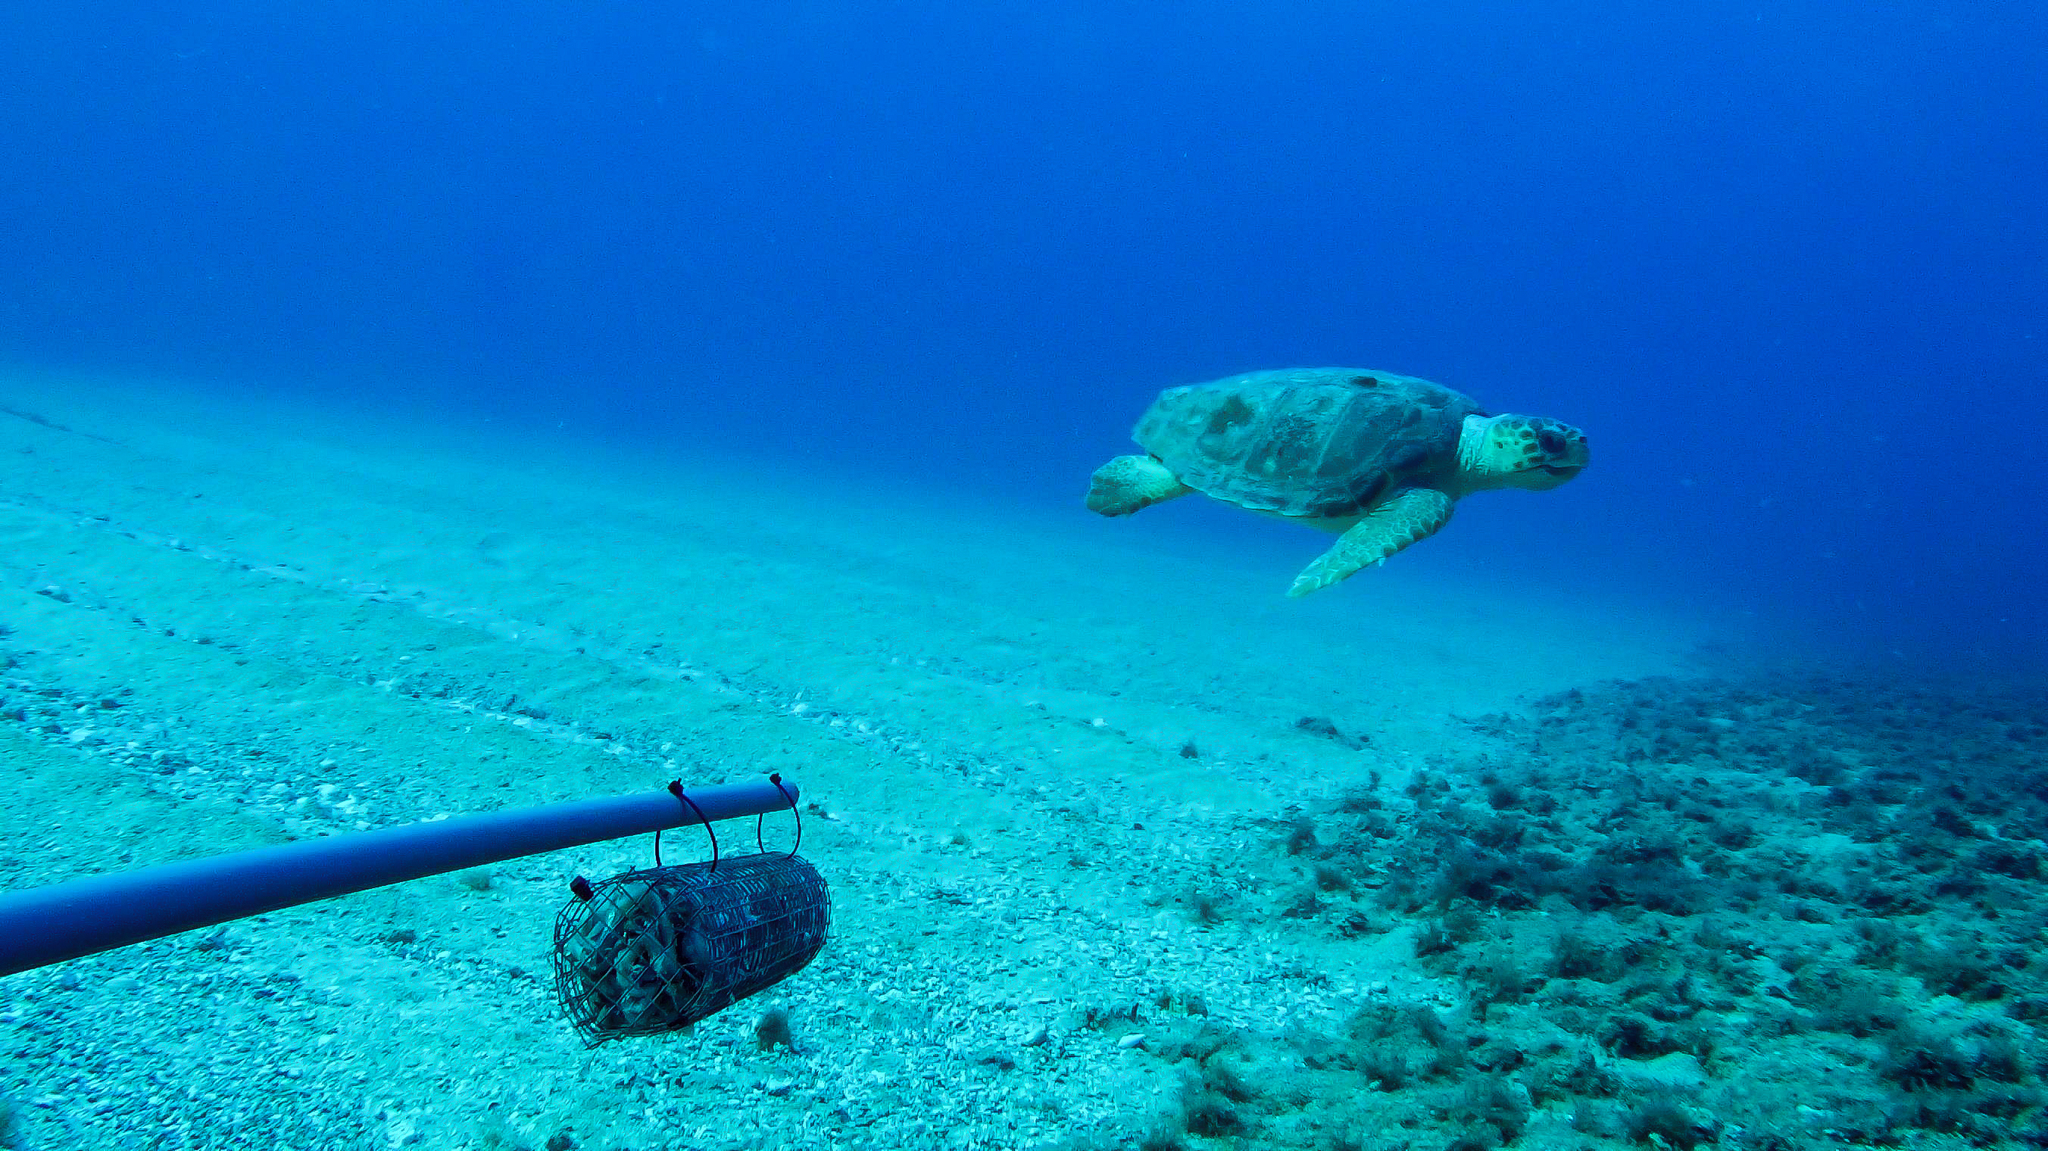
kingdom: Animalia
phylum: Chordata
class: Testudines
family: Cheloniidae
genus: Caretta
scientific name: Caretta caretta
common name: Loggerhead sea turtle
